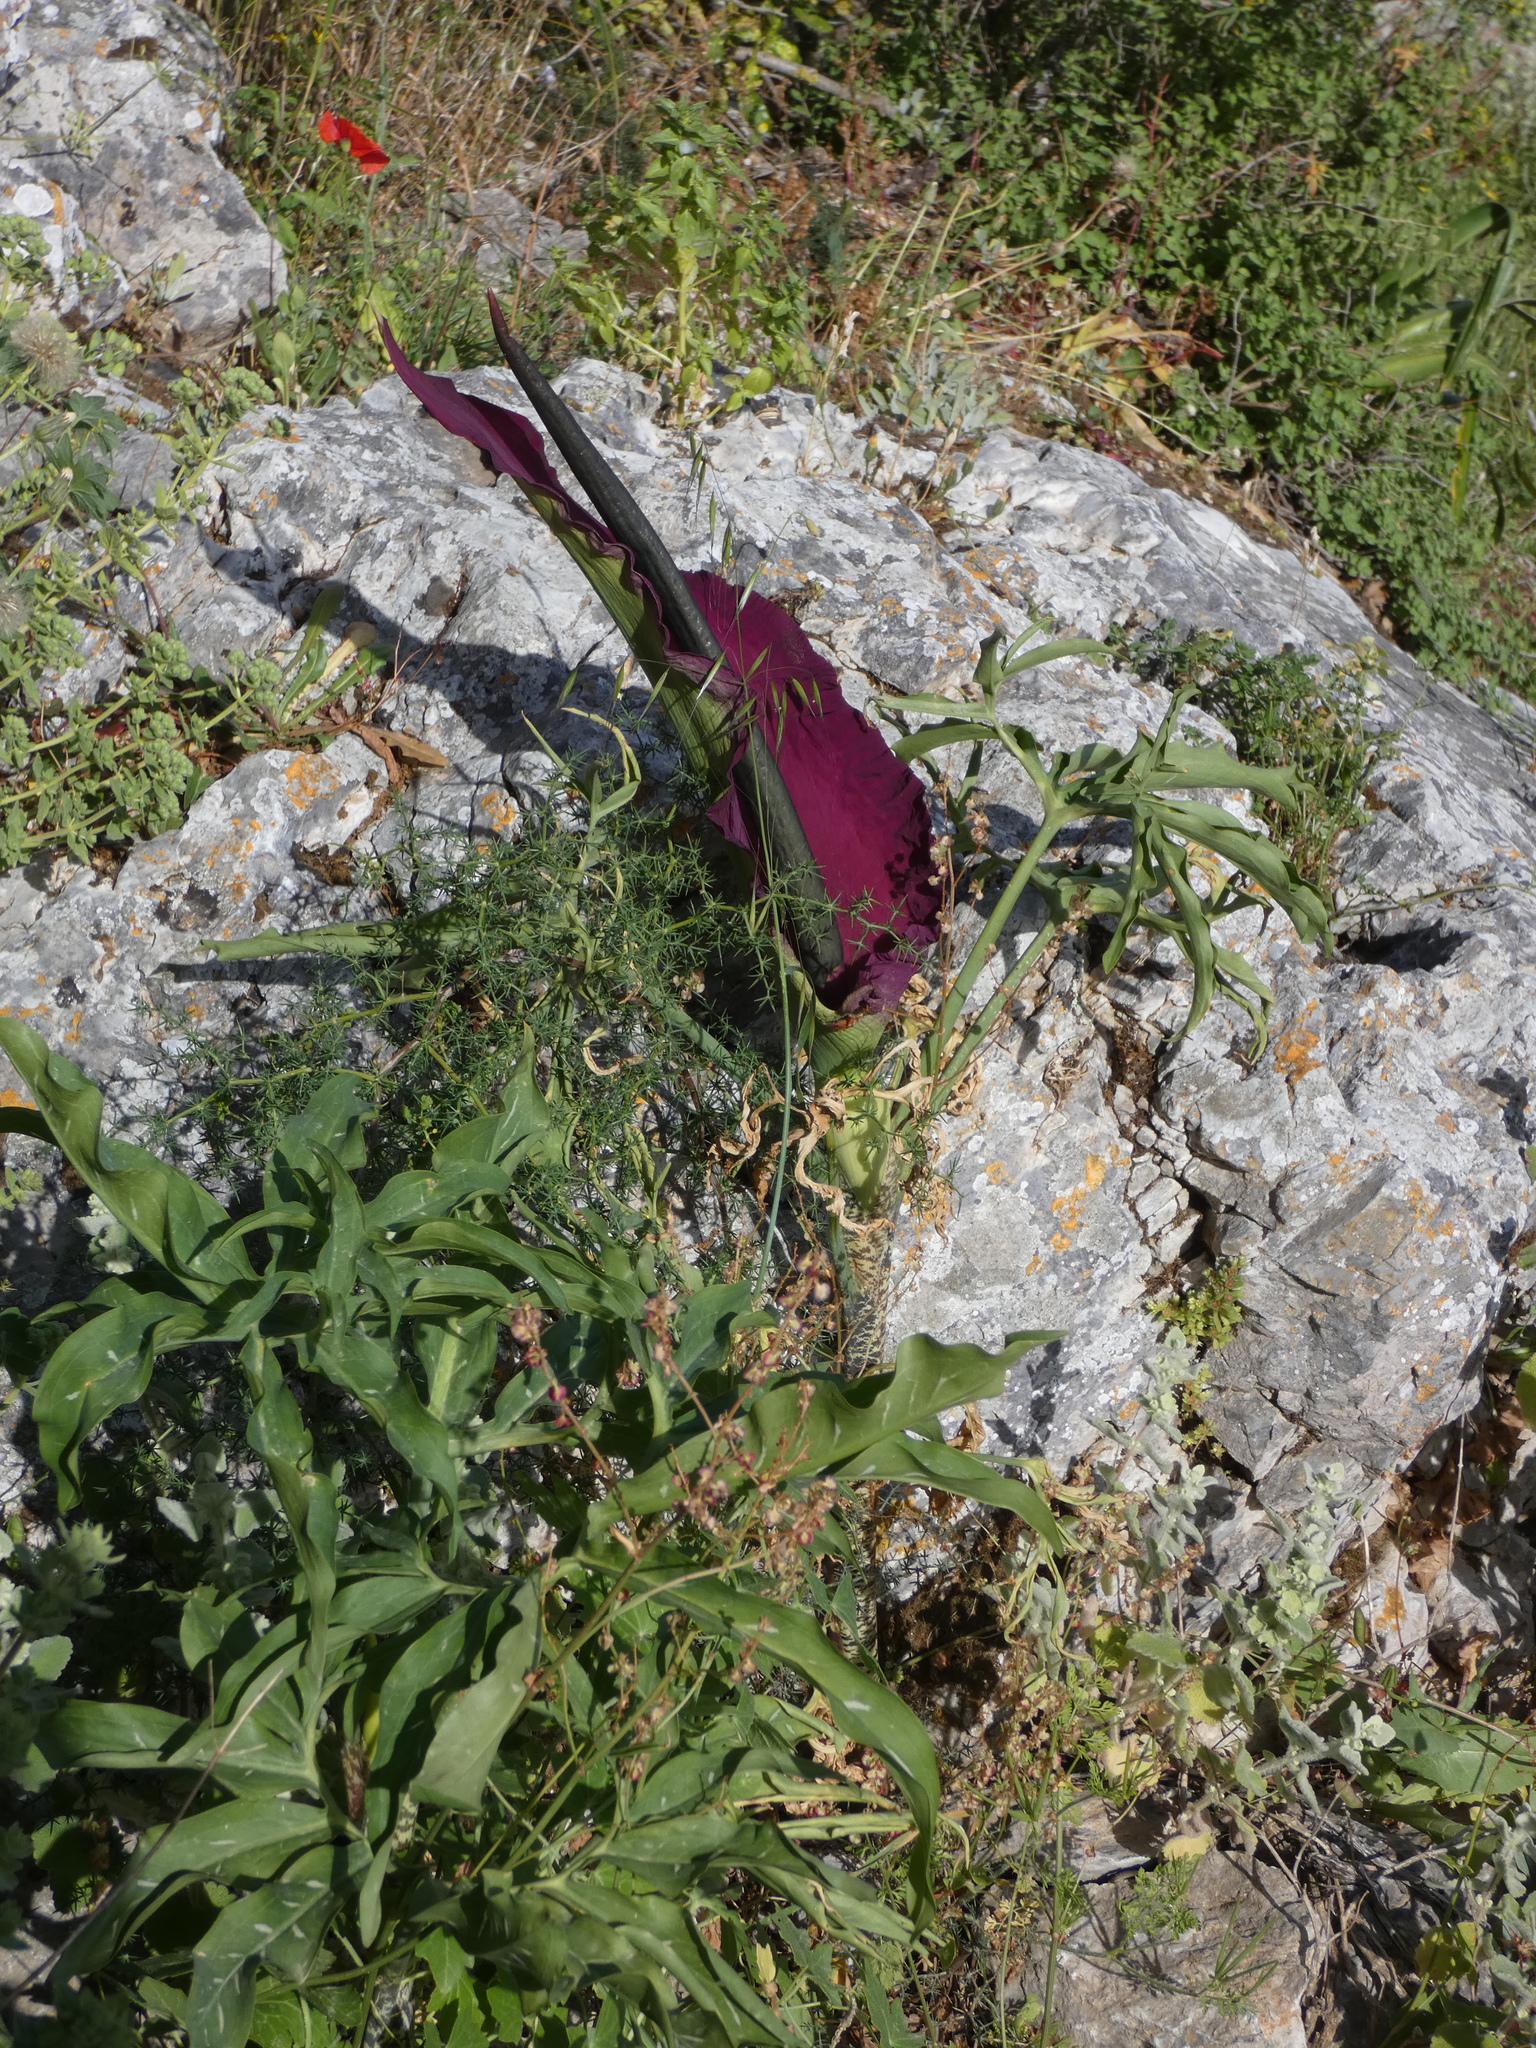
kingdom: Plantae
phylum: Tracheophyta
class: Liliopsida
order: Alismatales
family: Araceae
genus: Dracunculus
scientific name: Dracunculus vulgaris
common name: Dragon arum
